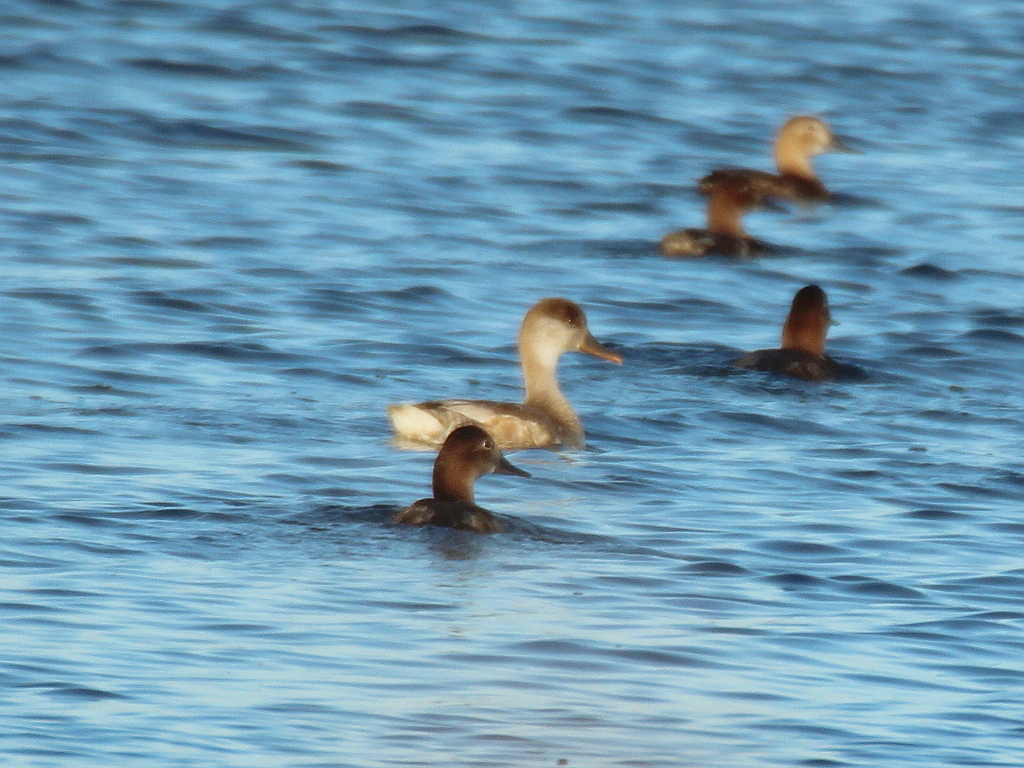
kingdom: Animalia
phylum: Chordata
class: Aves
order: Anseriformes
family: Anatidae
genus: Netta
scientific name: Netta rufina
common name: Red-crested pochard
